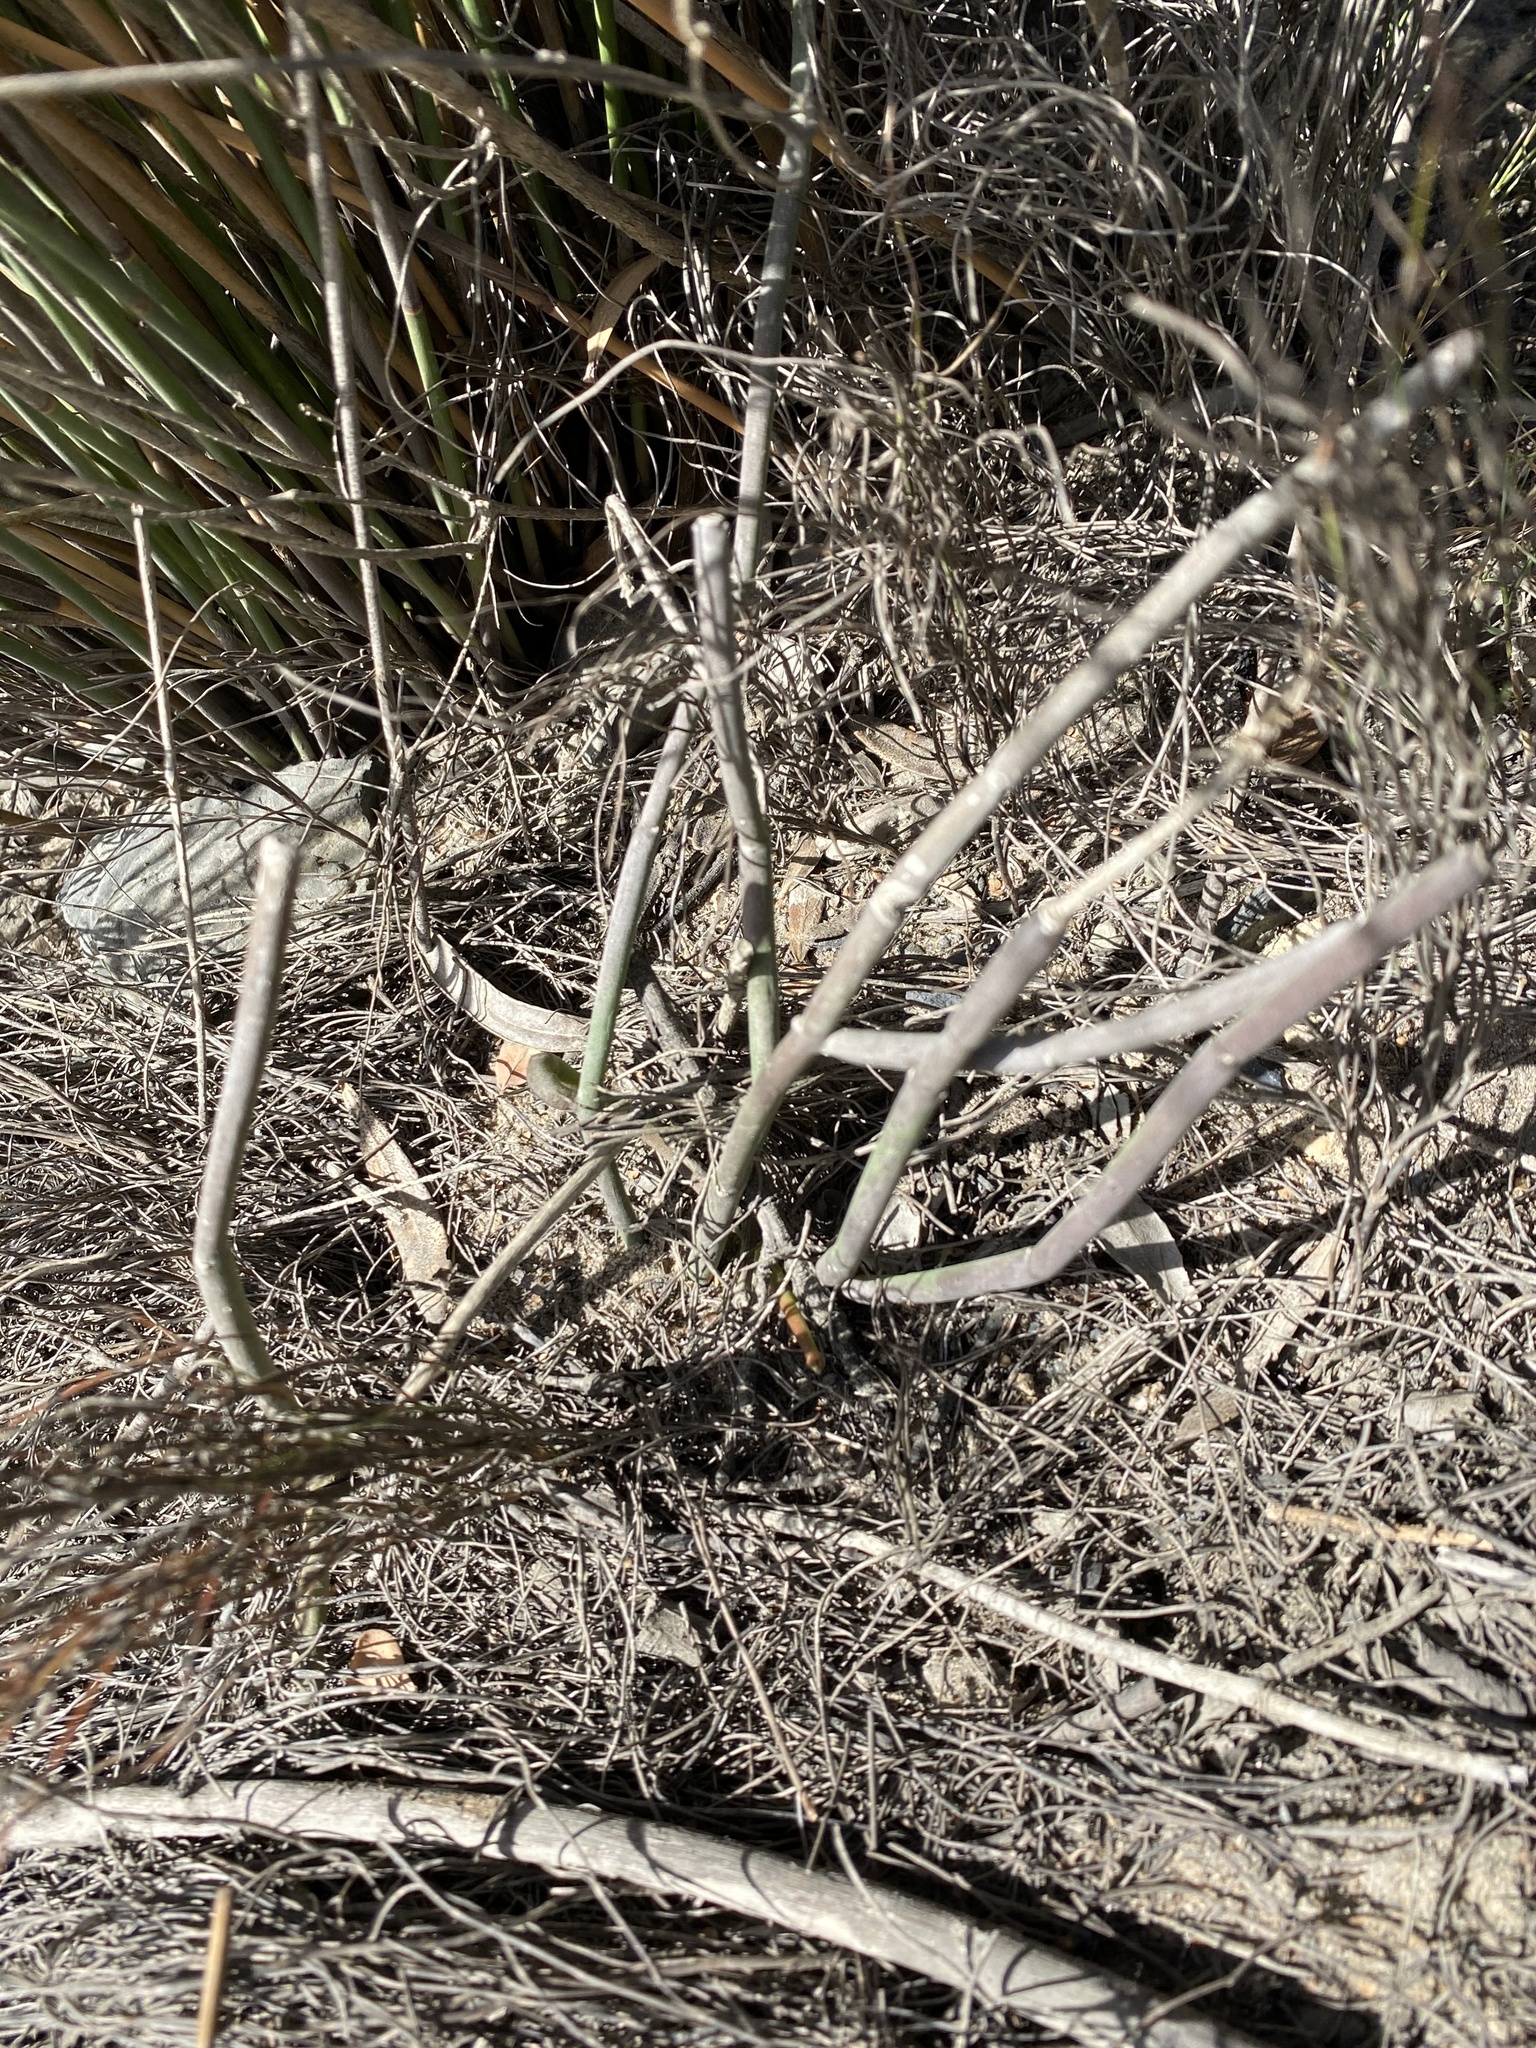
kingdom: Plantae
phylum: Tracheophyta
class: Magnoliopsida
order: Gentianales
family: Apocynaceae
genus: Cynanchum
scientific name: Cynanchum viminale
